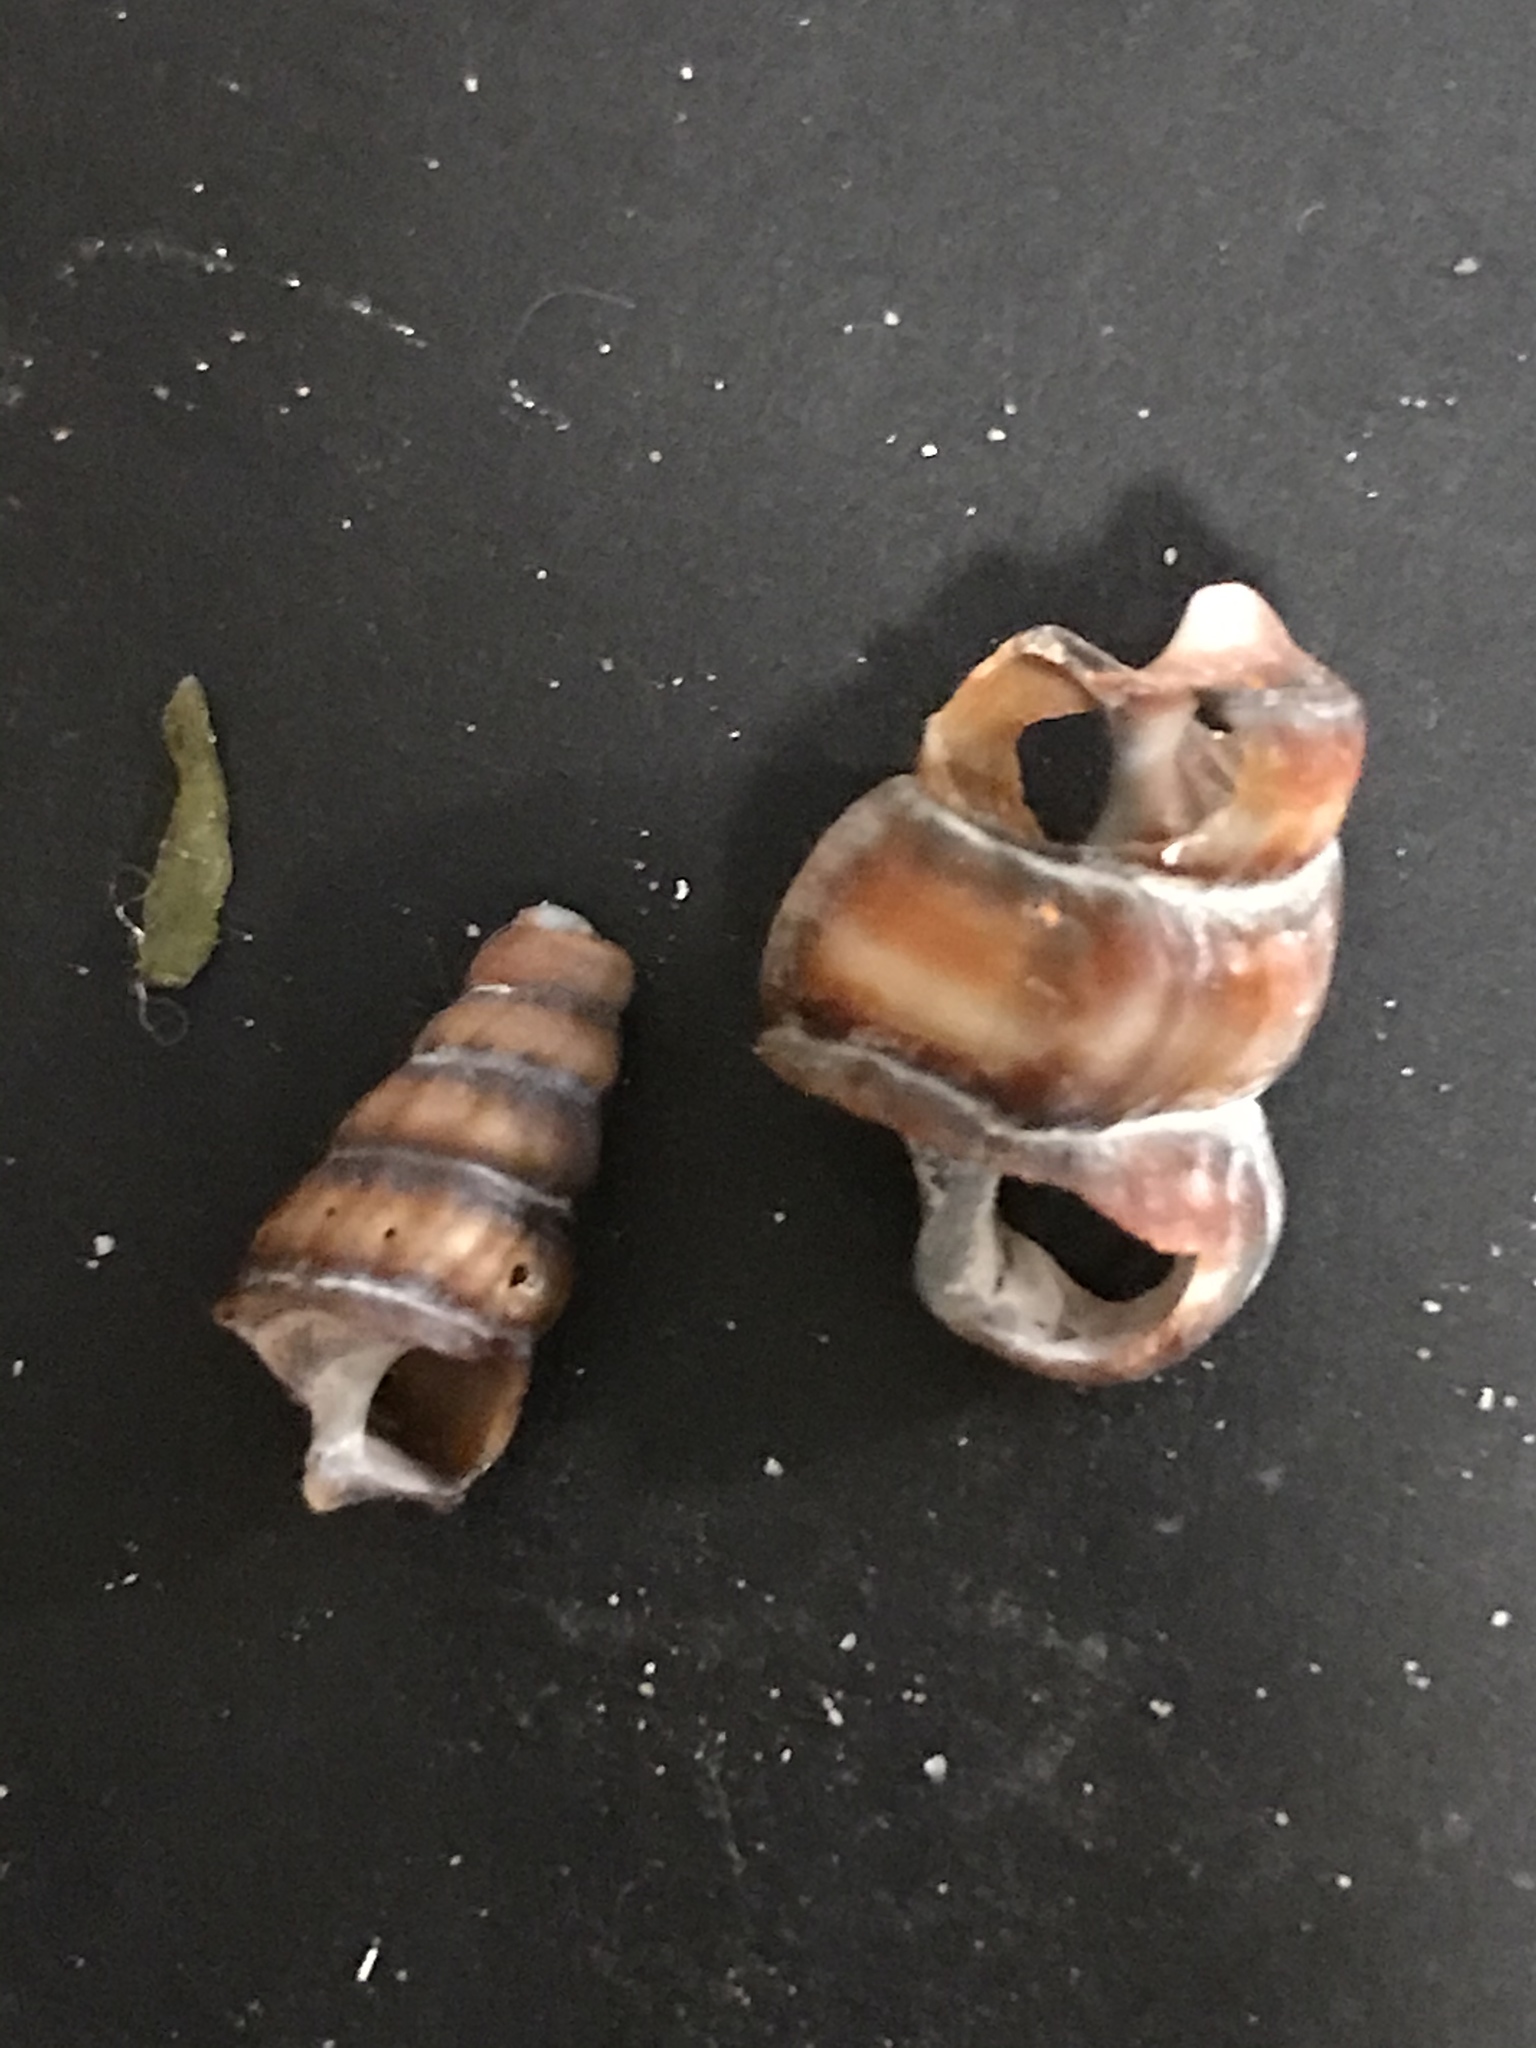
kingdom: Animalia
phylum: Mollusca
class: Gastropoda
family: Potamididae
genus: Cerithideopsis
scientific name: Cerithideopsis californica
